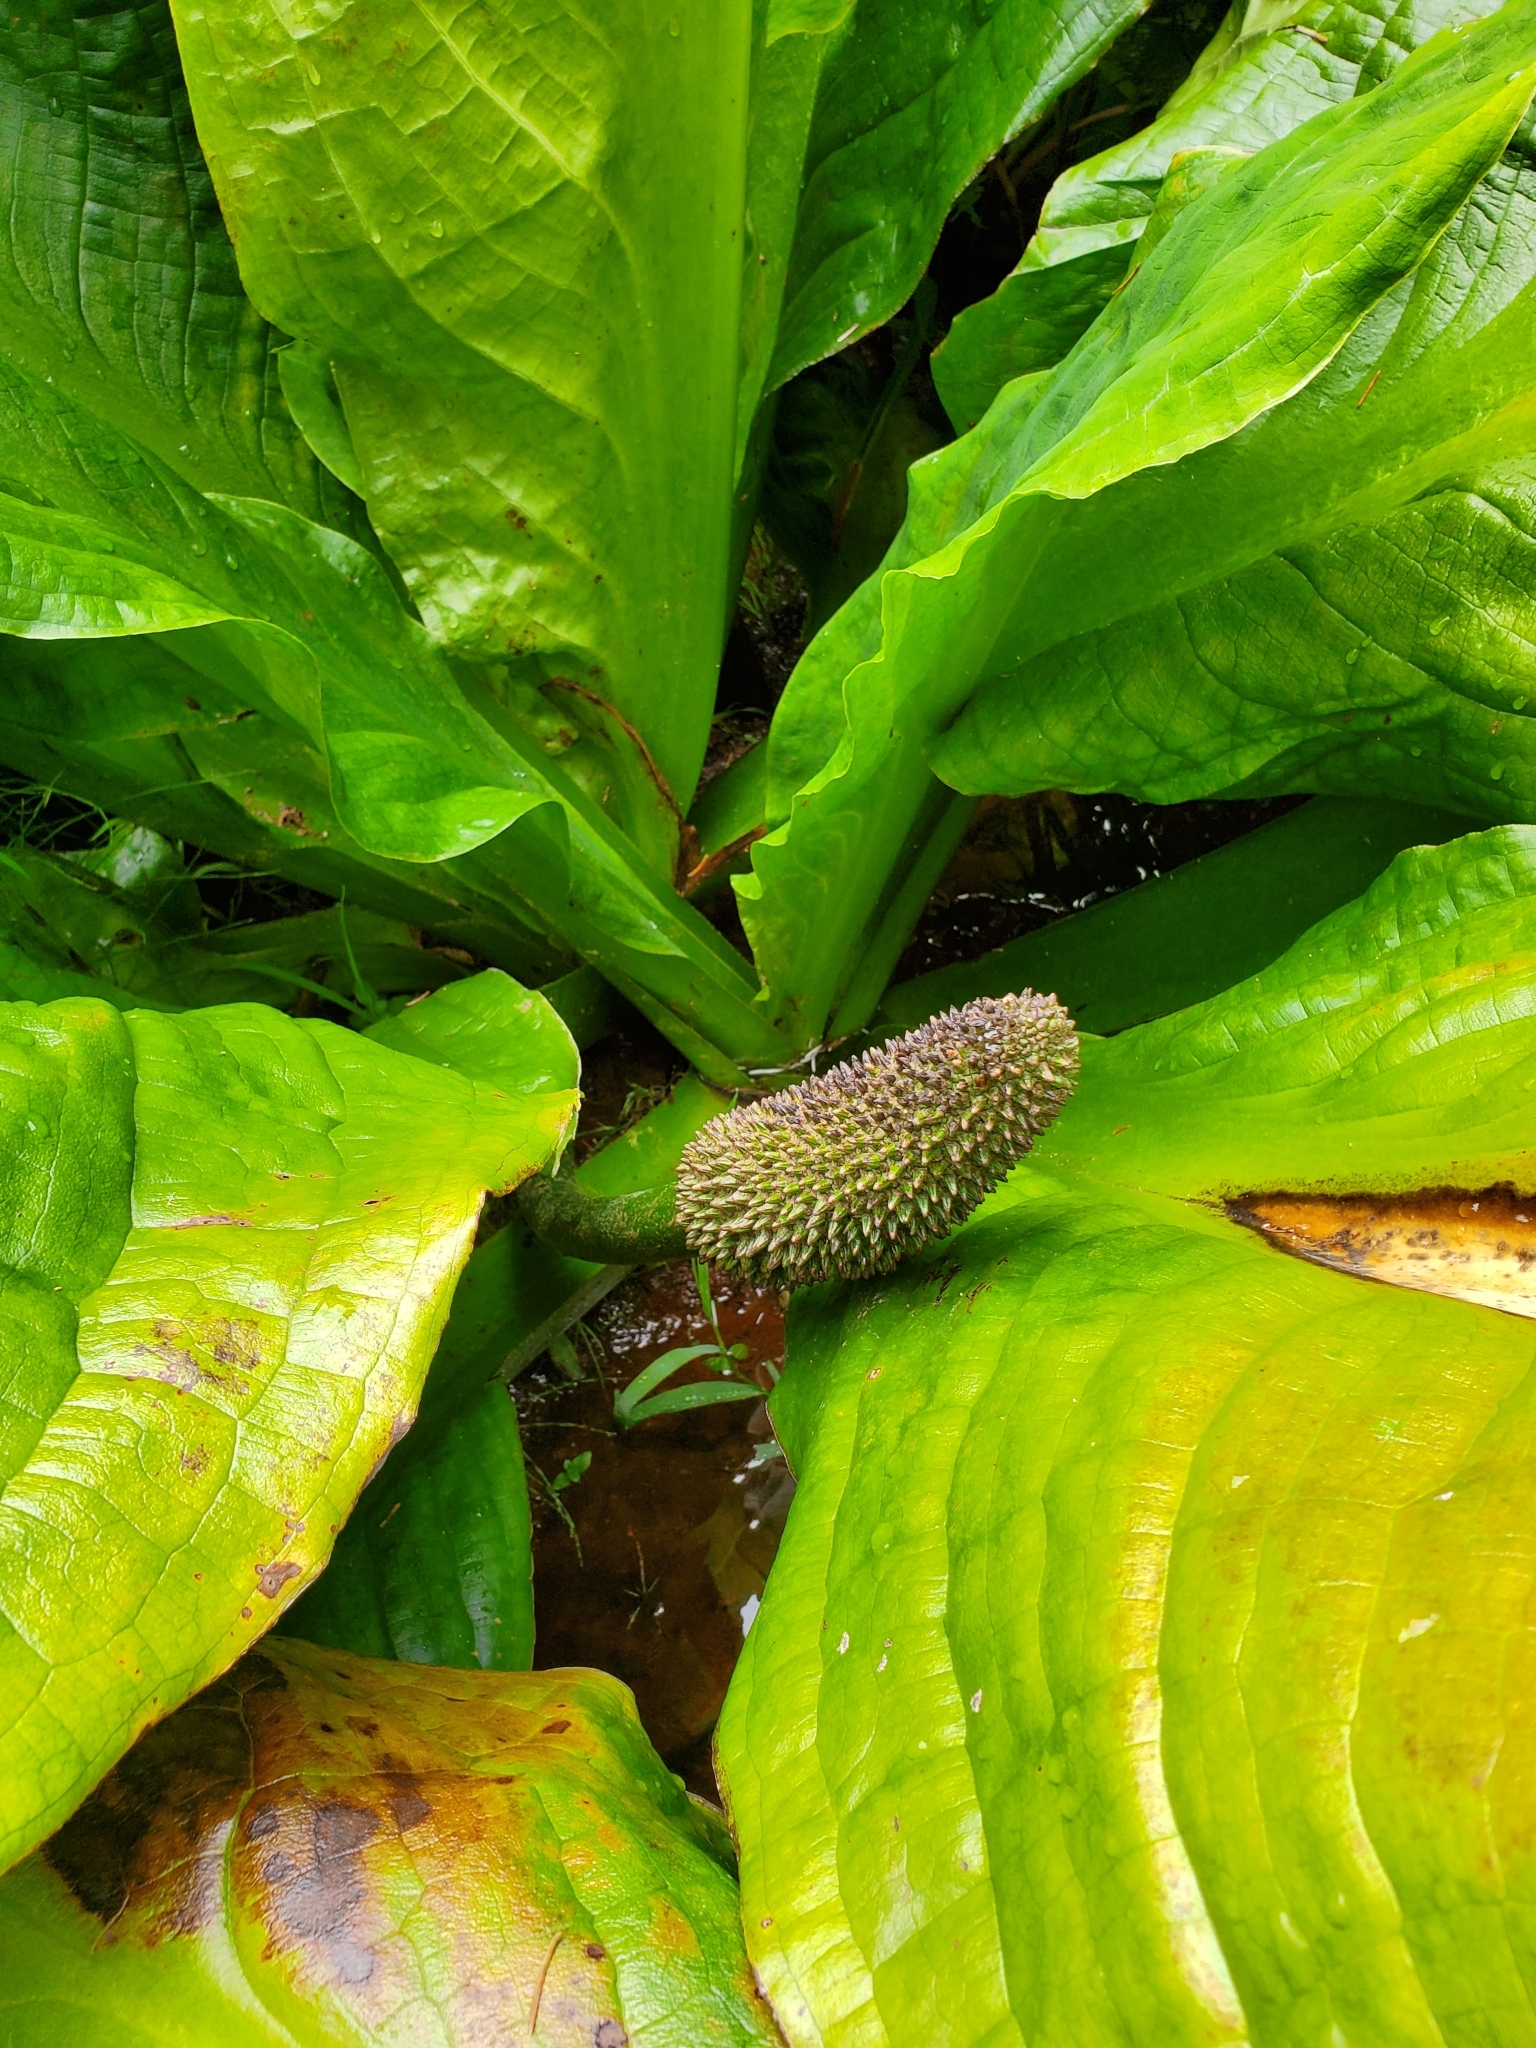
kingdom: Plantae
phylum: Tracheophyta
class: Liliopsida
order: Alismatales
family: Araceae
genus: Lysichiton
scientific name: Lysichiton americanus
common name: American skunk cabbage
